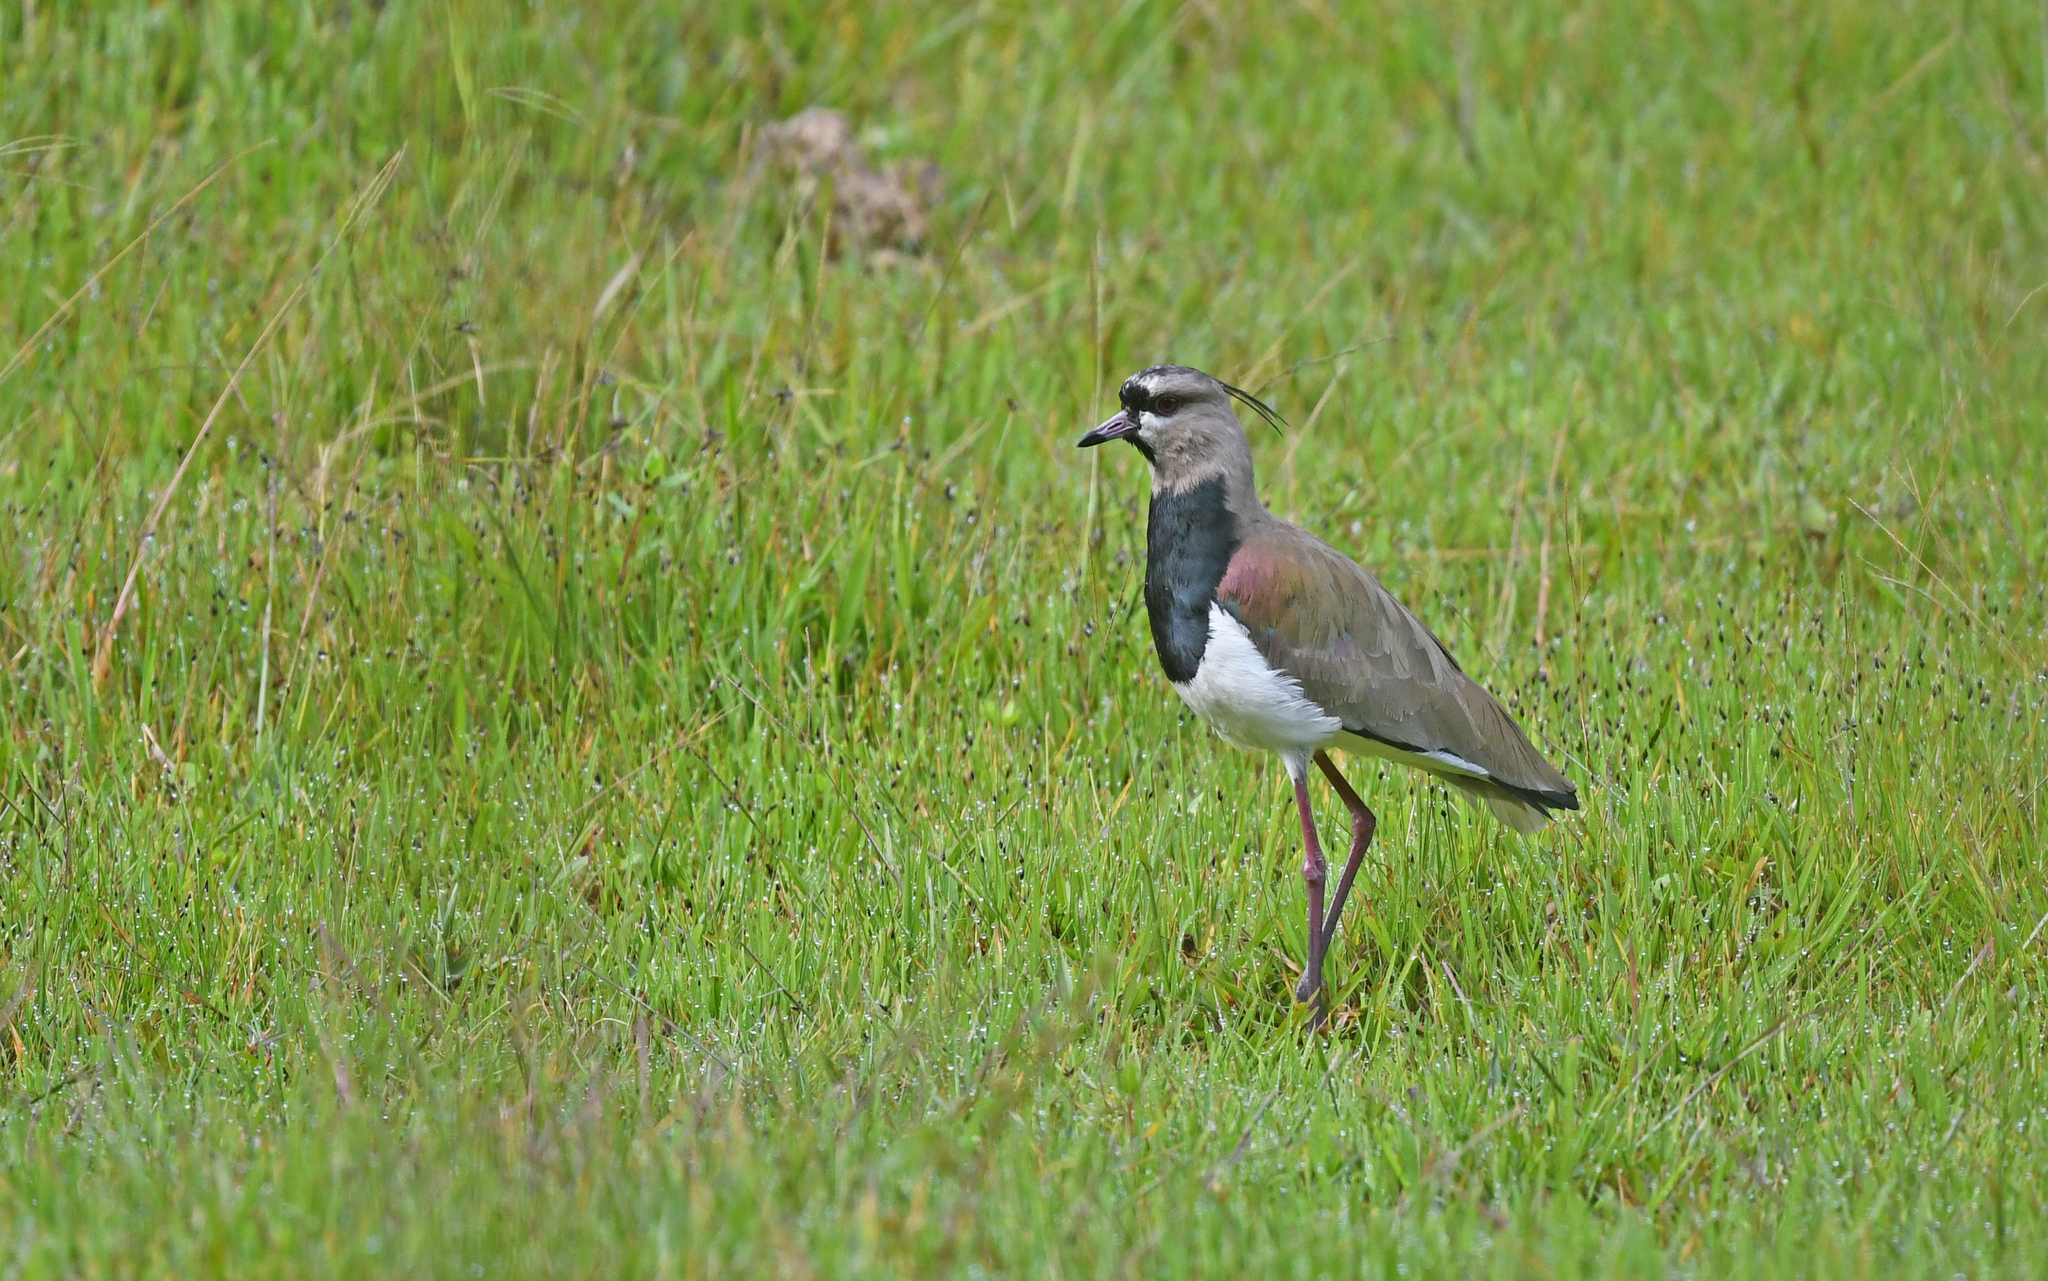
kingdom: Animalia
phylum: Chordata
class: Aves
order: Charadriiformes
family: Charadriidae
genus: Vanellus
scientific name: Vanellus chilensis
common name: Southern lapwing
